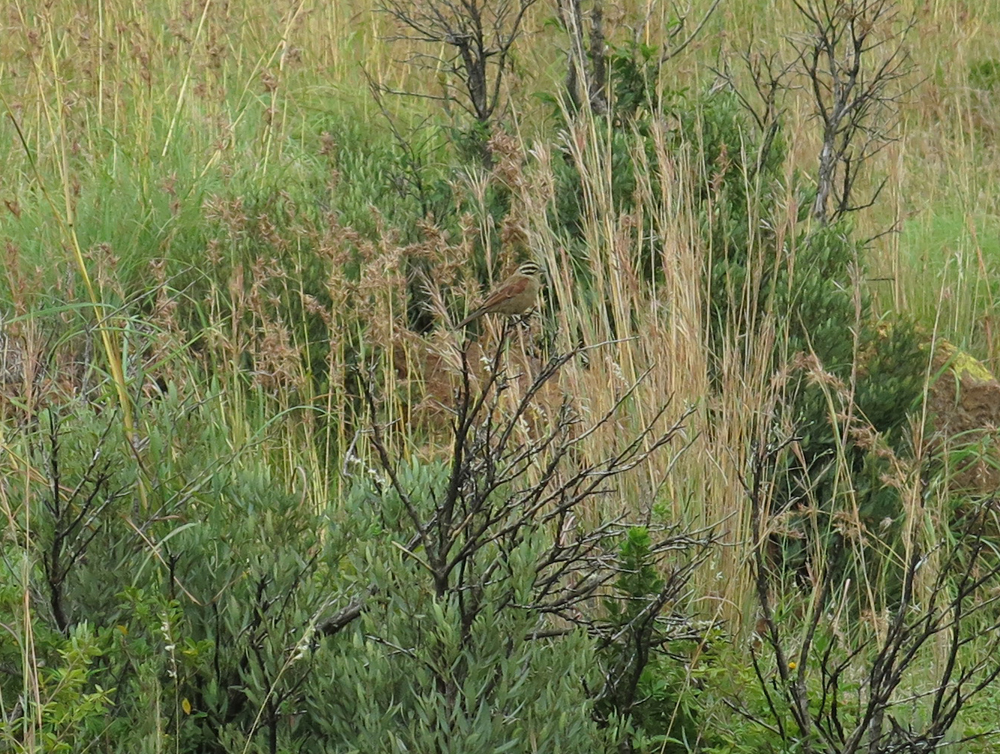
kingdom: Animalia
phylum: Chordata
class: Aves
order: Passeriformes
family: Emberizidae
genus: Emberiza
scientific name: Emberiza capensis
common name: Cape bunting
